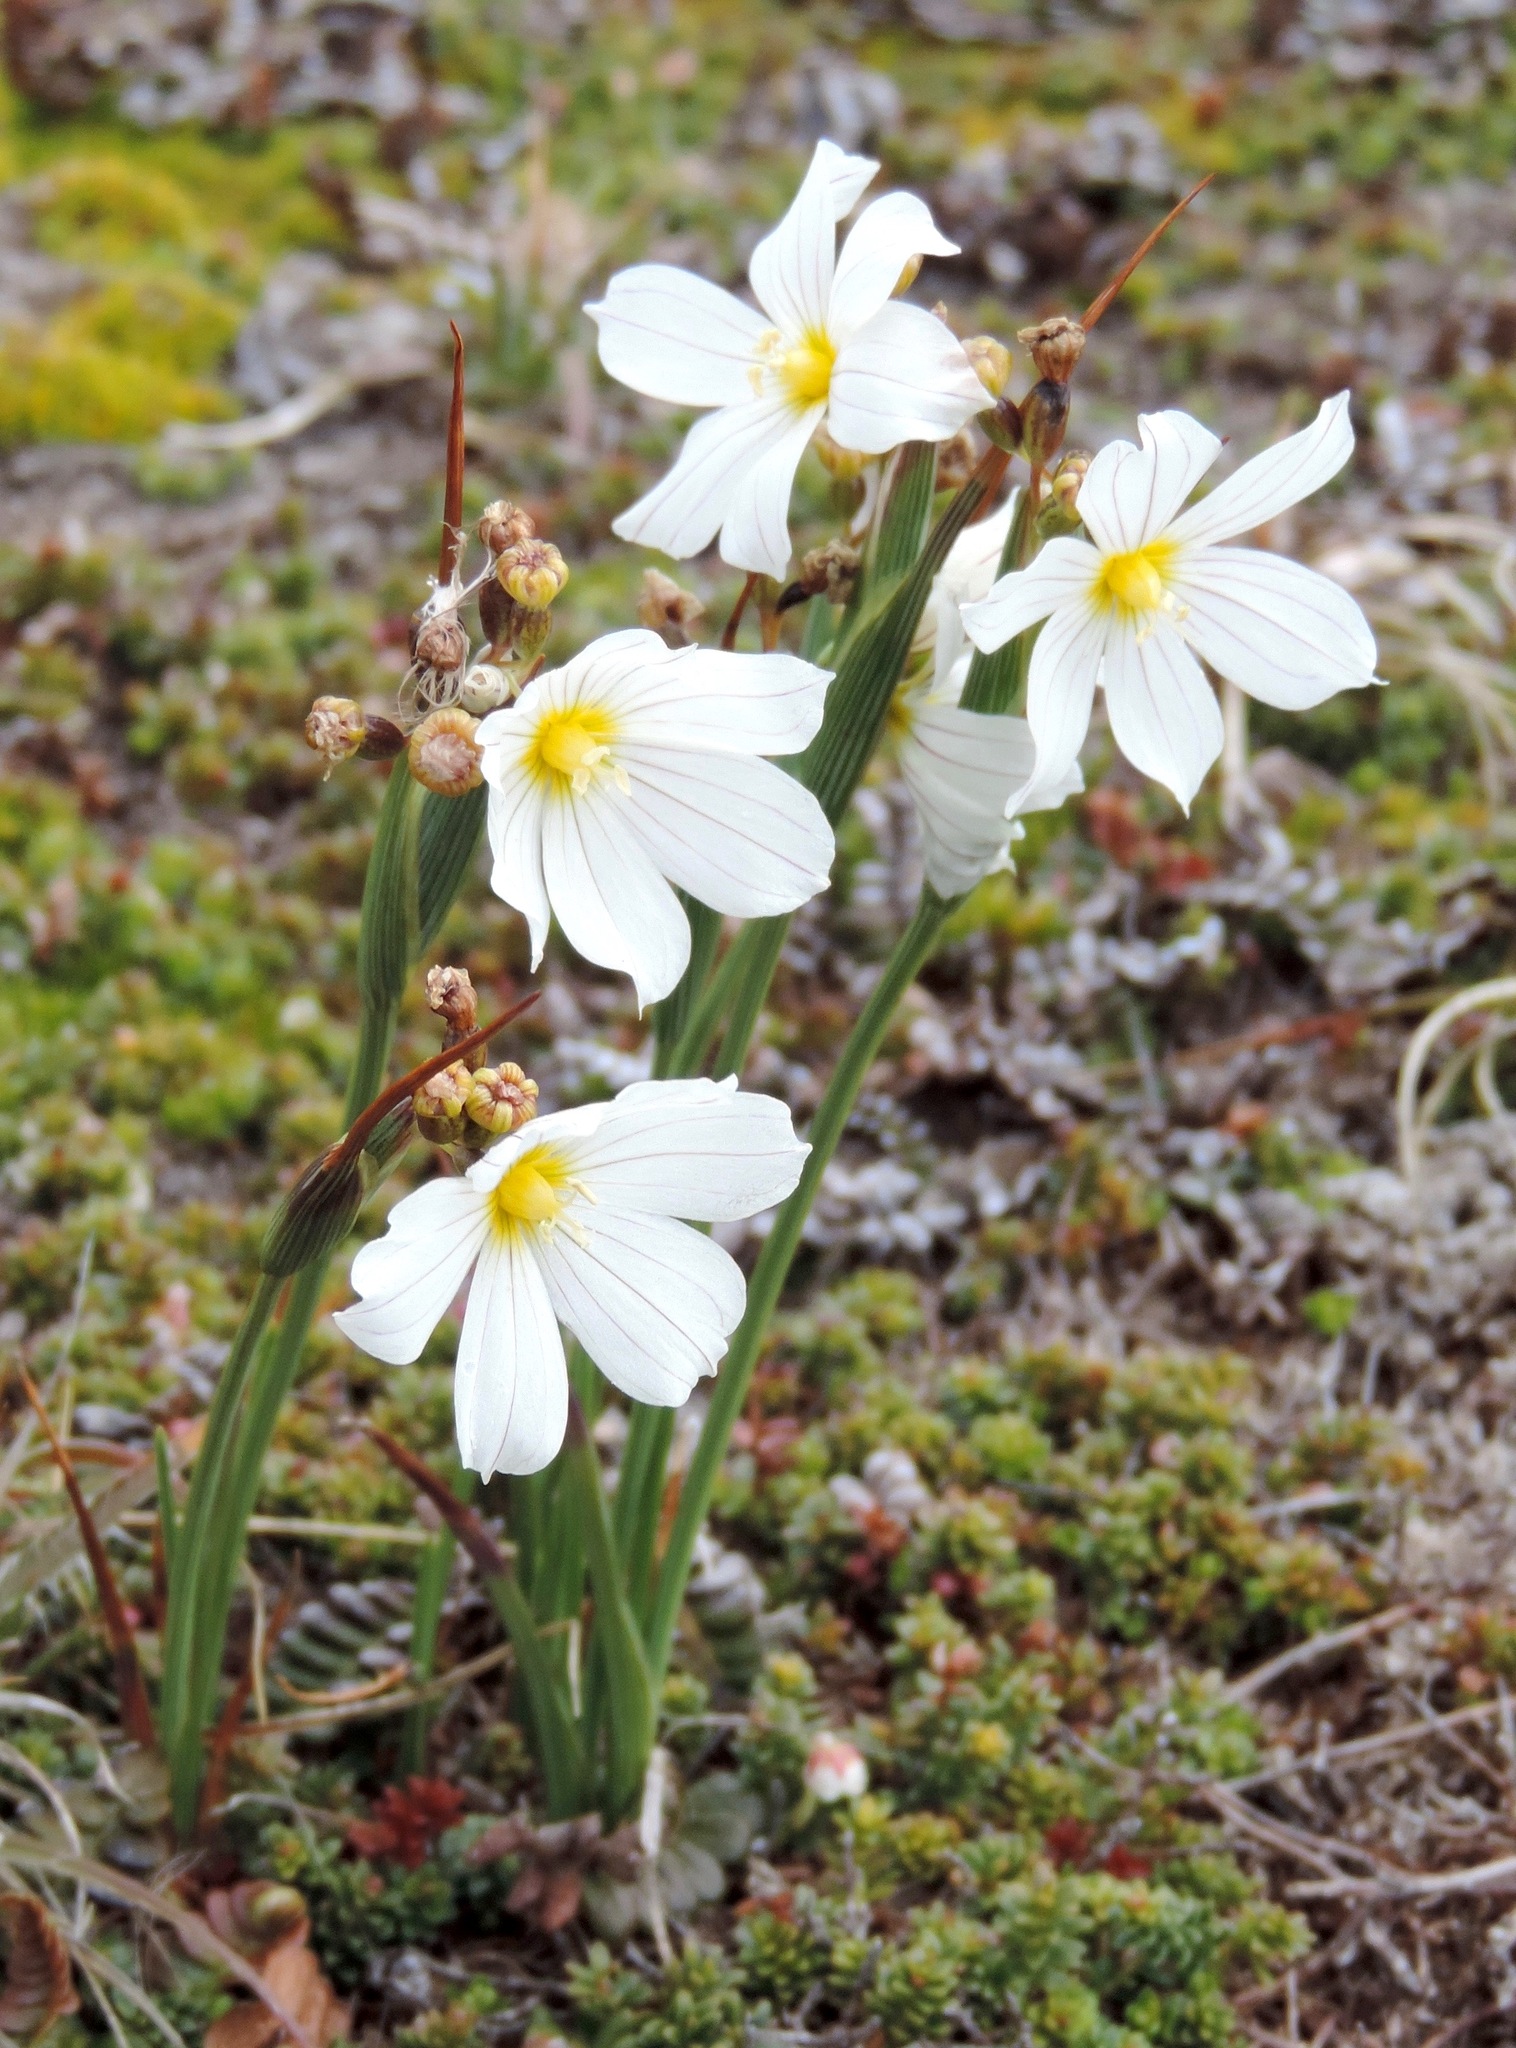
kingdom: Plantae
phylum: Tracheophyta
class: Liliopsida
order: Asparagales
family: Iridaceae
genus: Olsynium
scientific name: Olsynium filifolium
